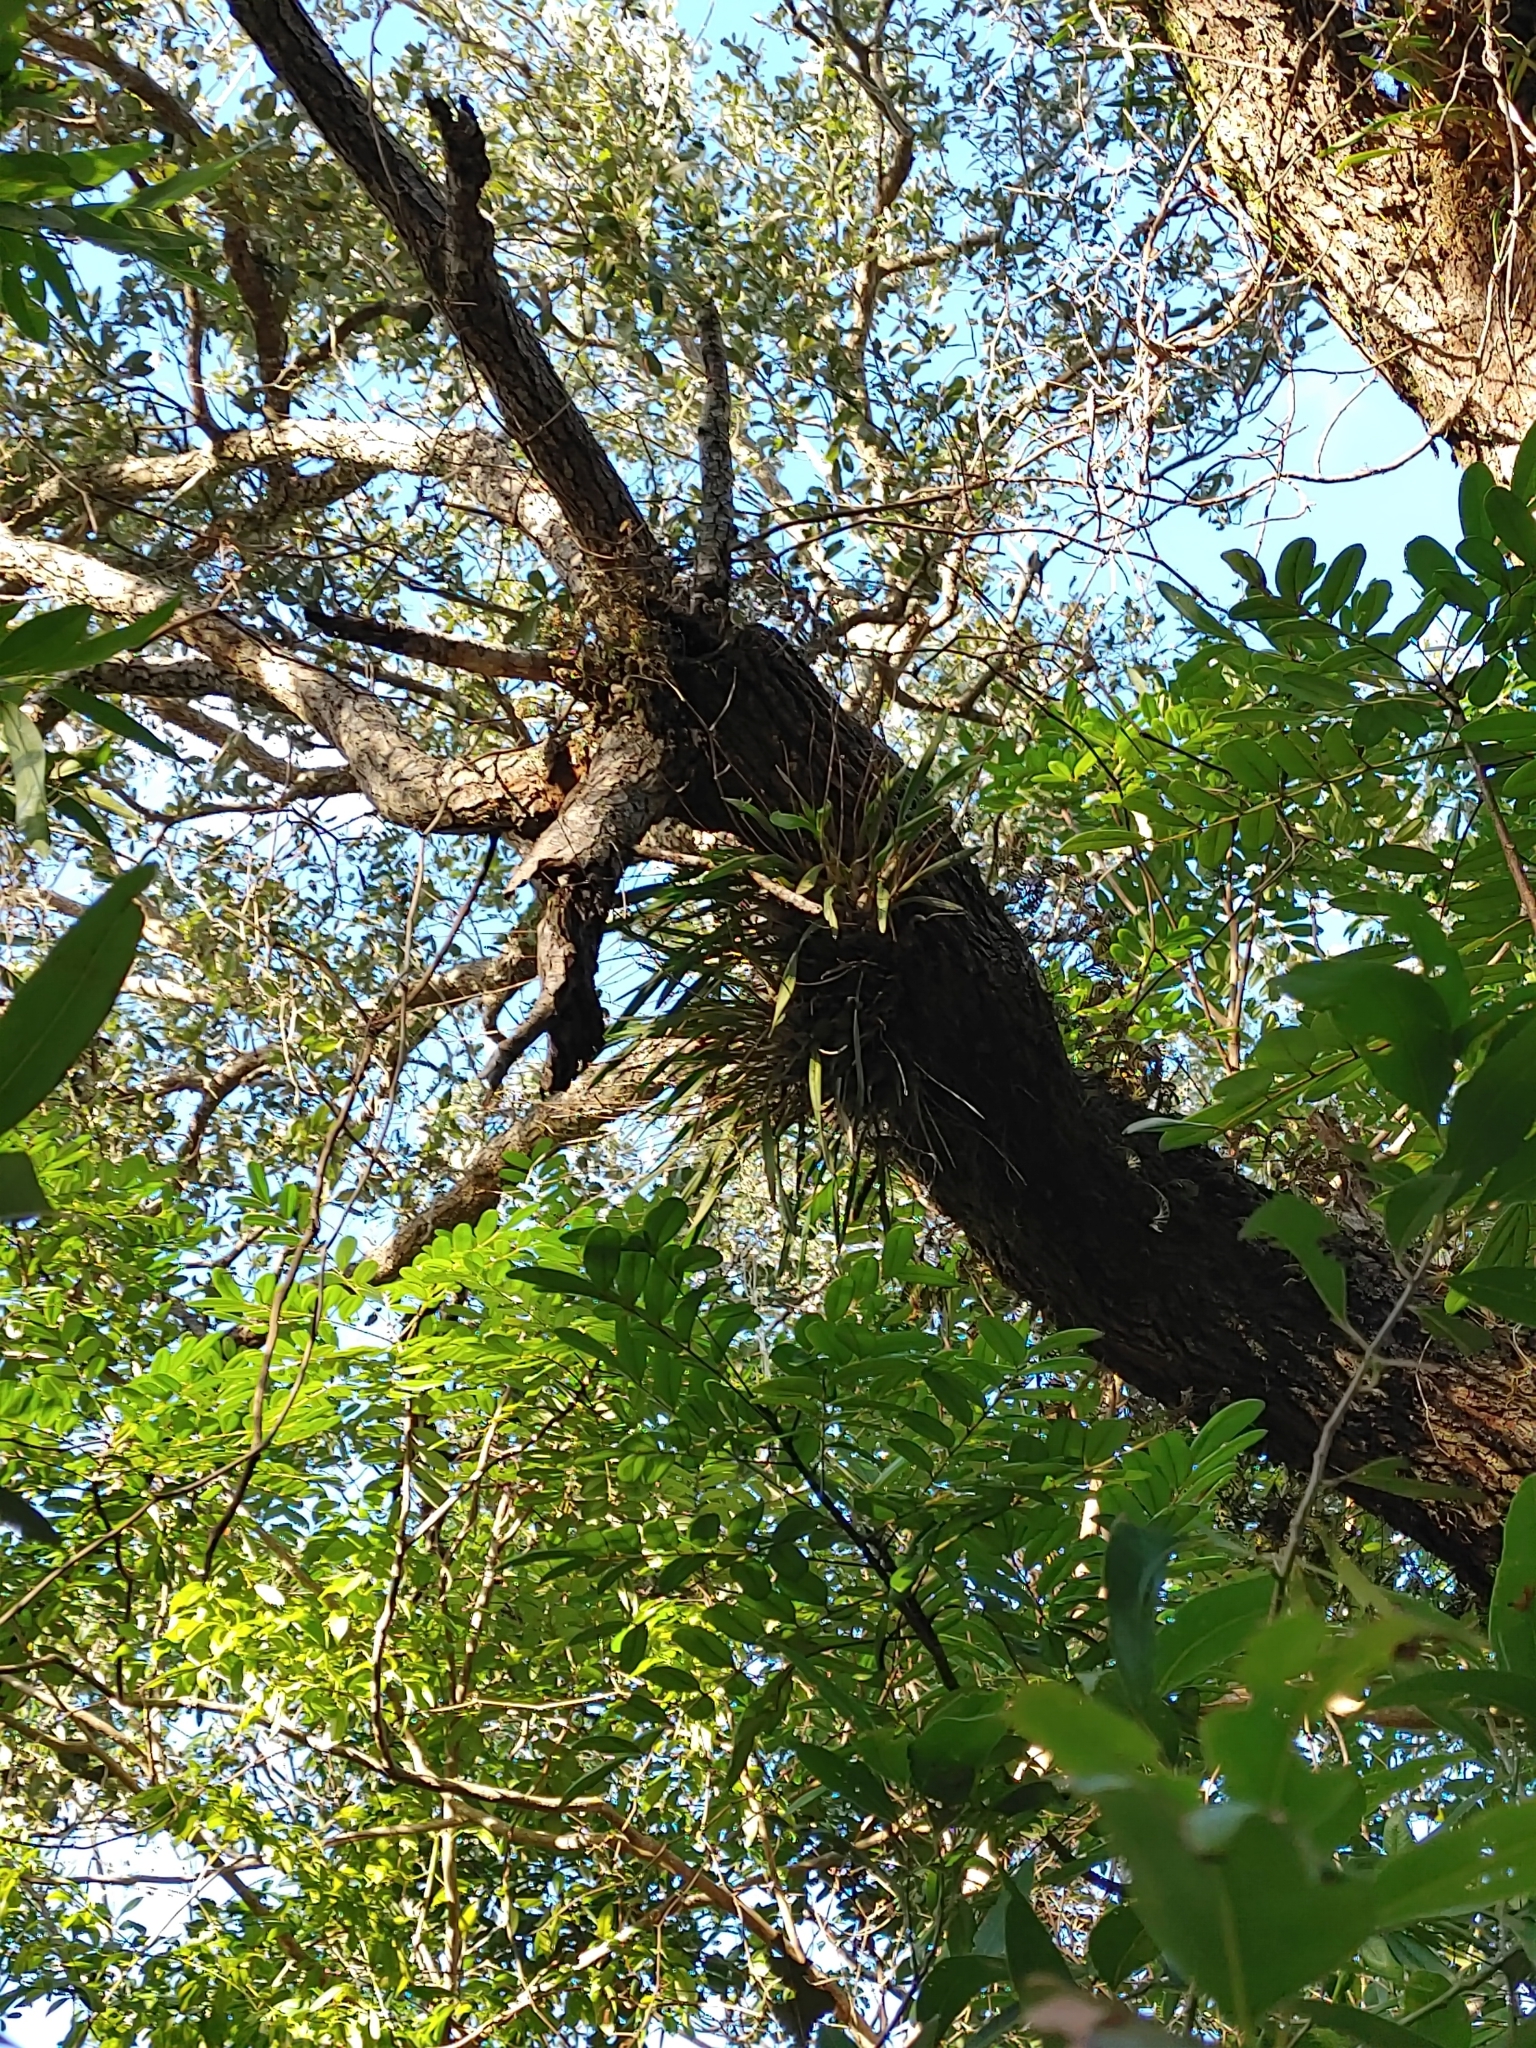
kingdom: Plantae
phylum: Tracheophyta
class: Liliopsida
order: Asparagales
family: Orchidaceae
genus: Encyclia
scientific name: Encyclia tampensis
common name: Florida butterfly orchid
